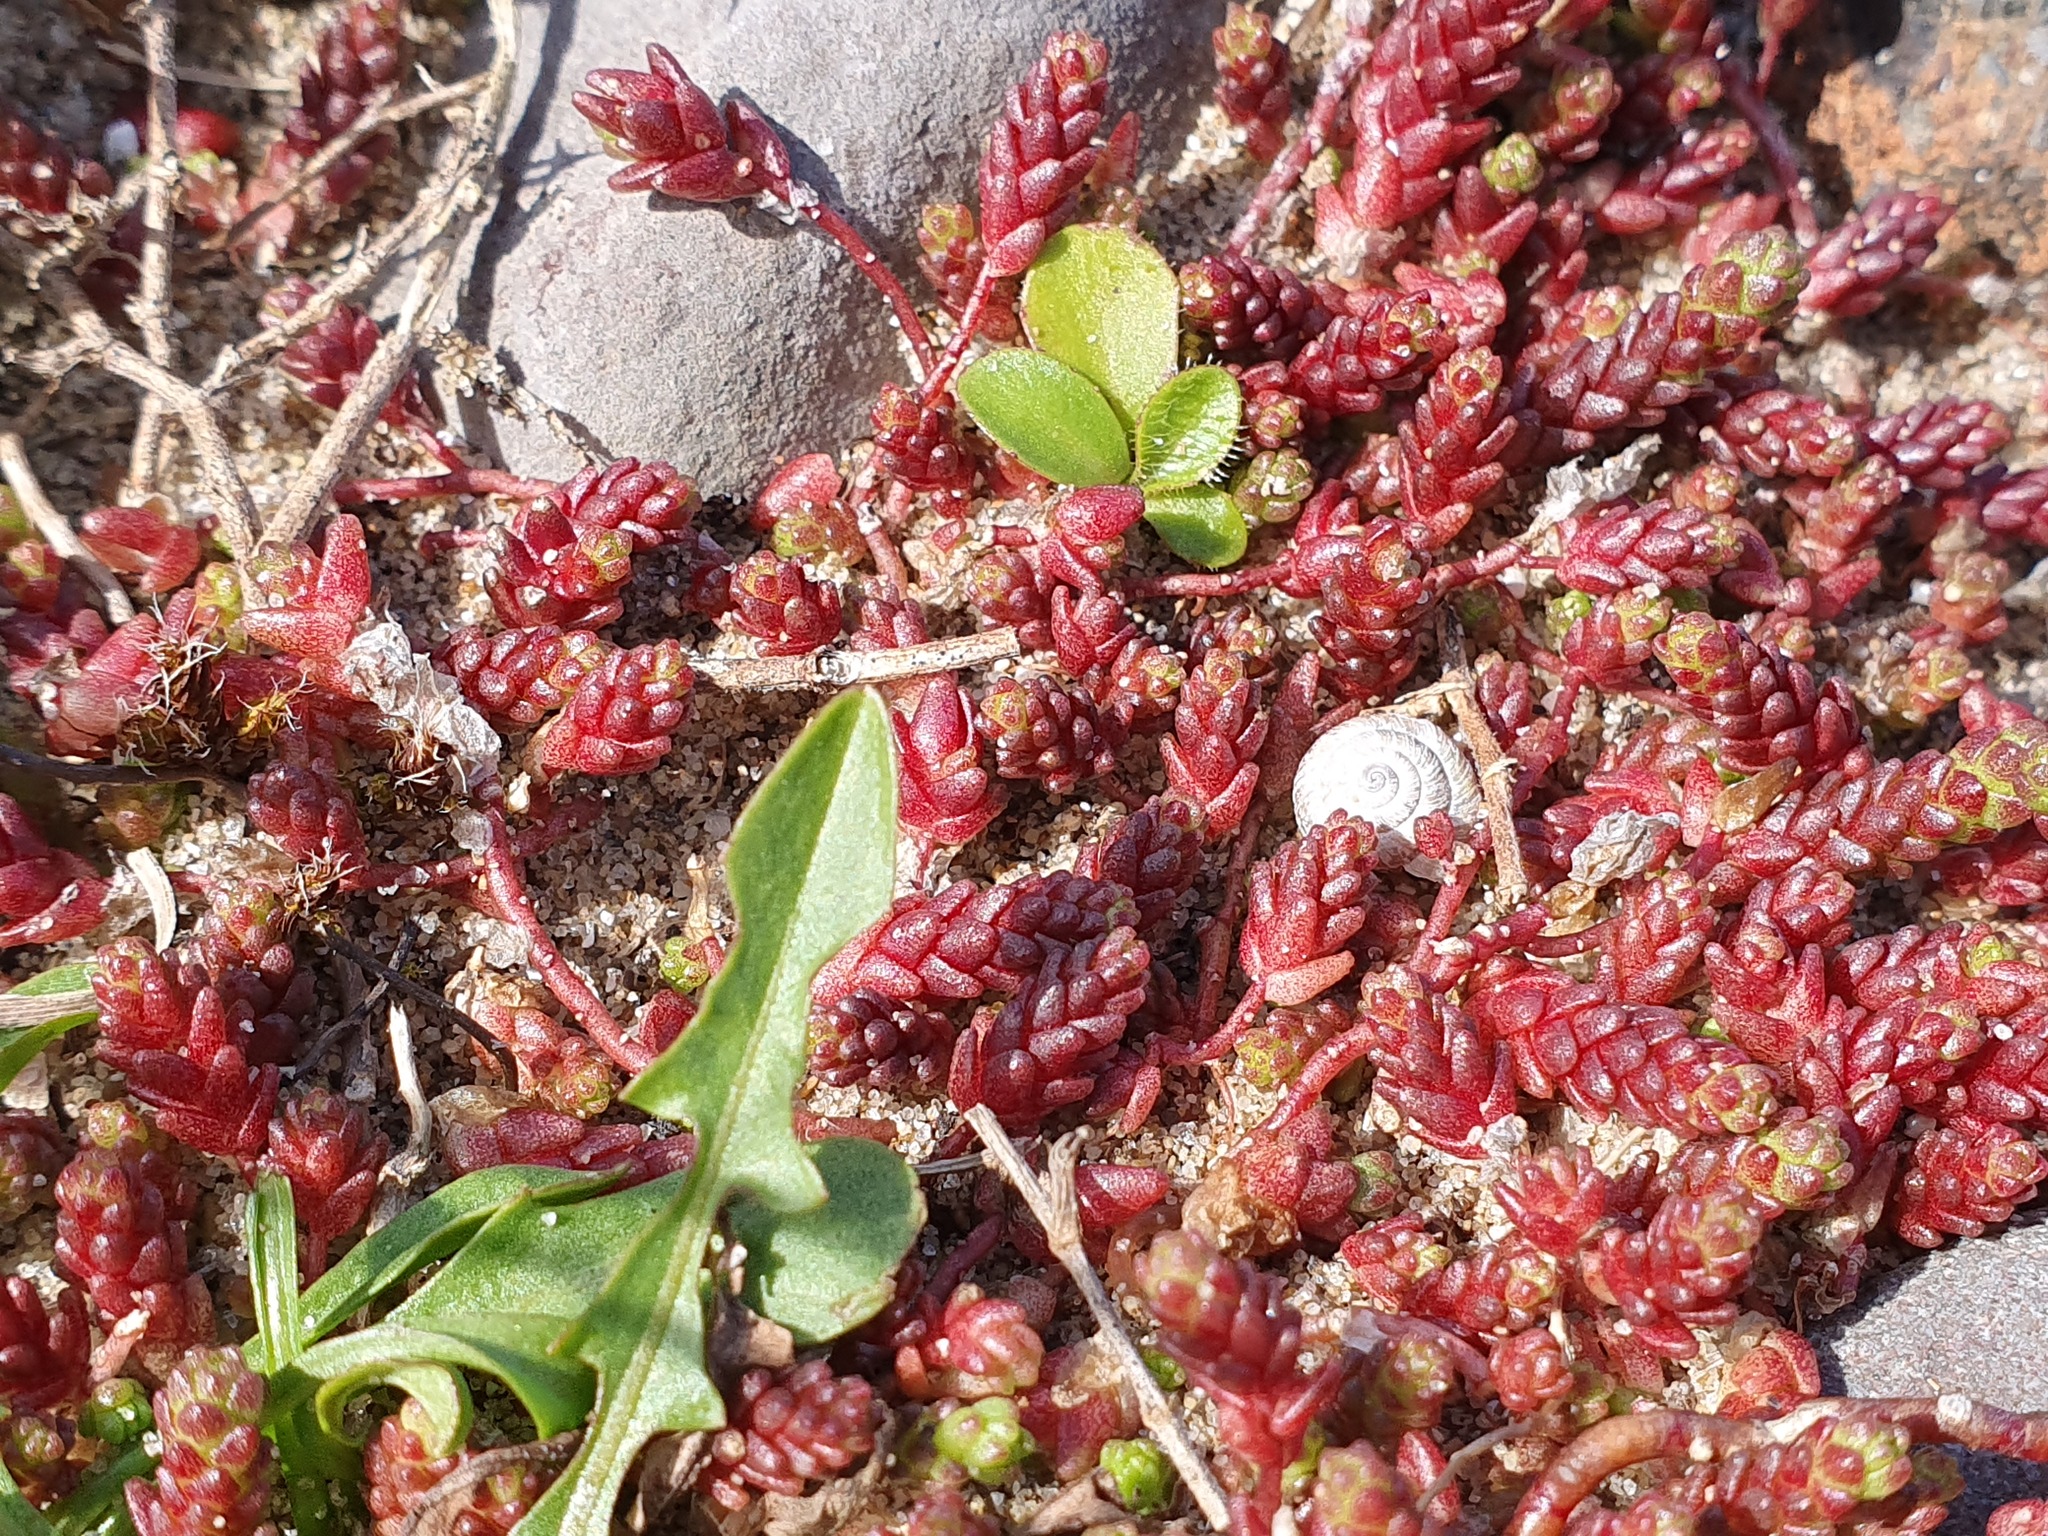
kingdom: Plantae
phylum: Tracheophyta
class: Magnoliopsida
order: Saxifragales
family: Crassulaceae
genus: Sedum
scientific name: Sedum acre
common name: Biting stonecrop
